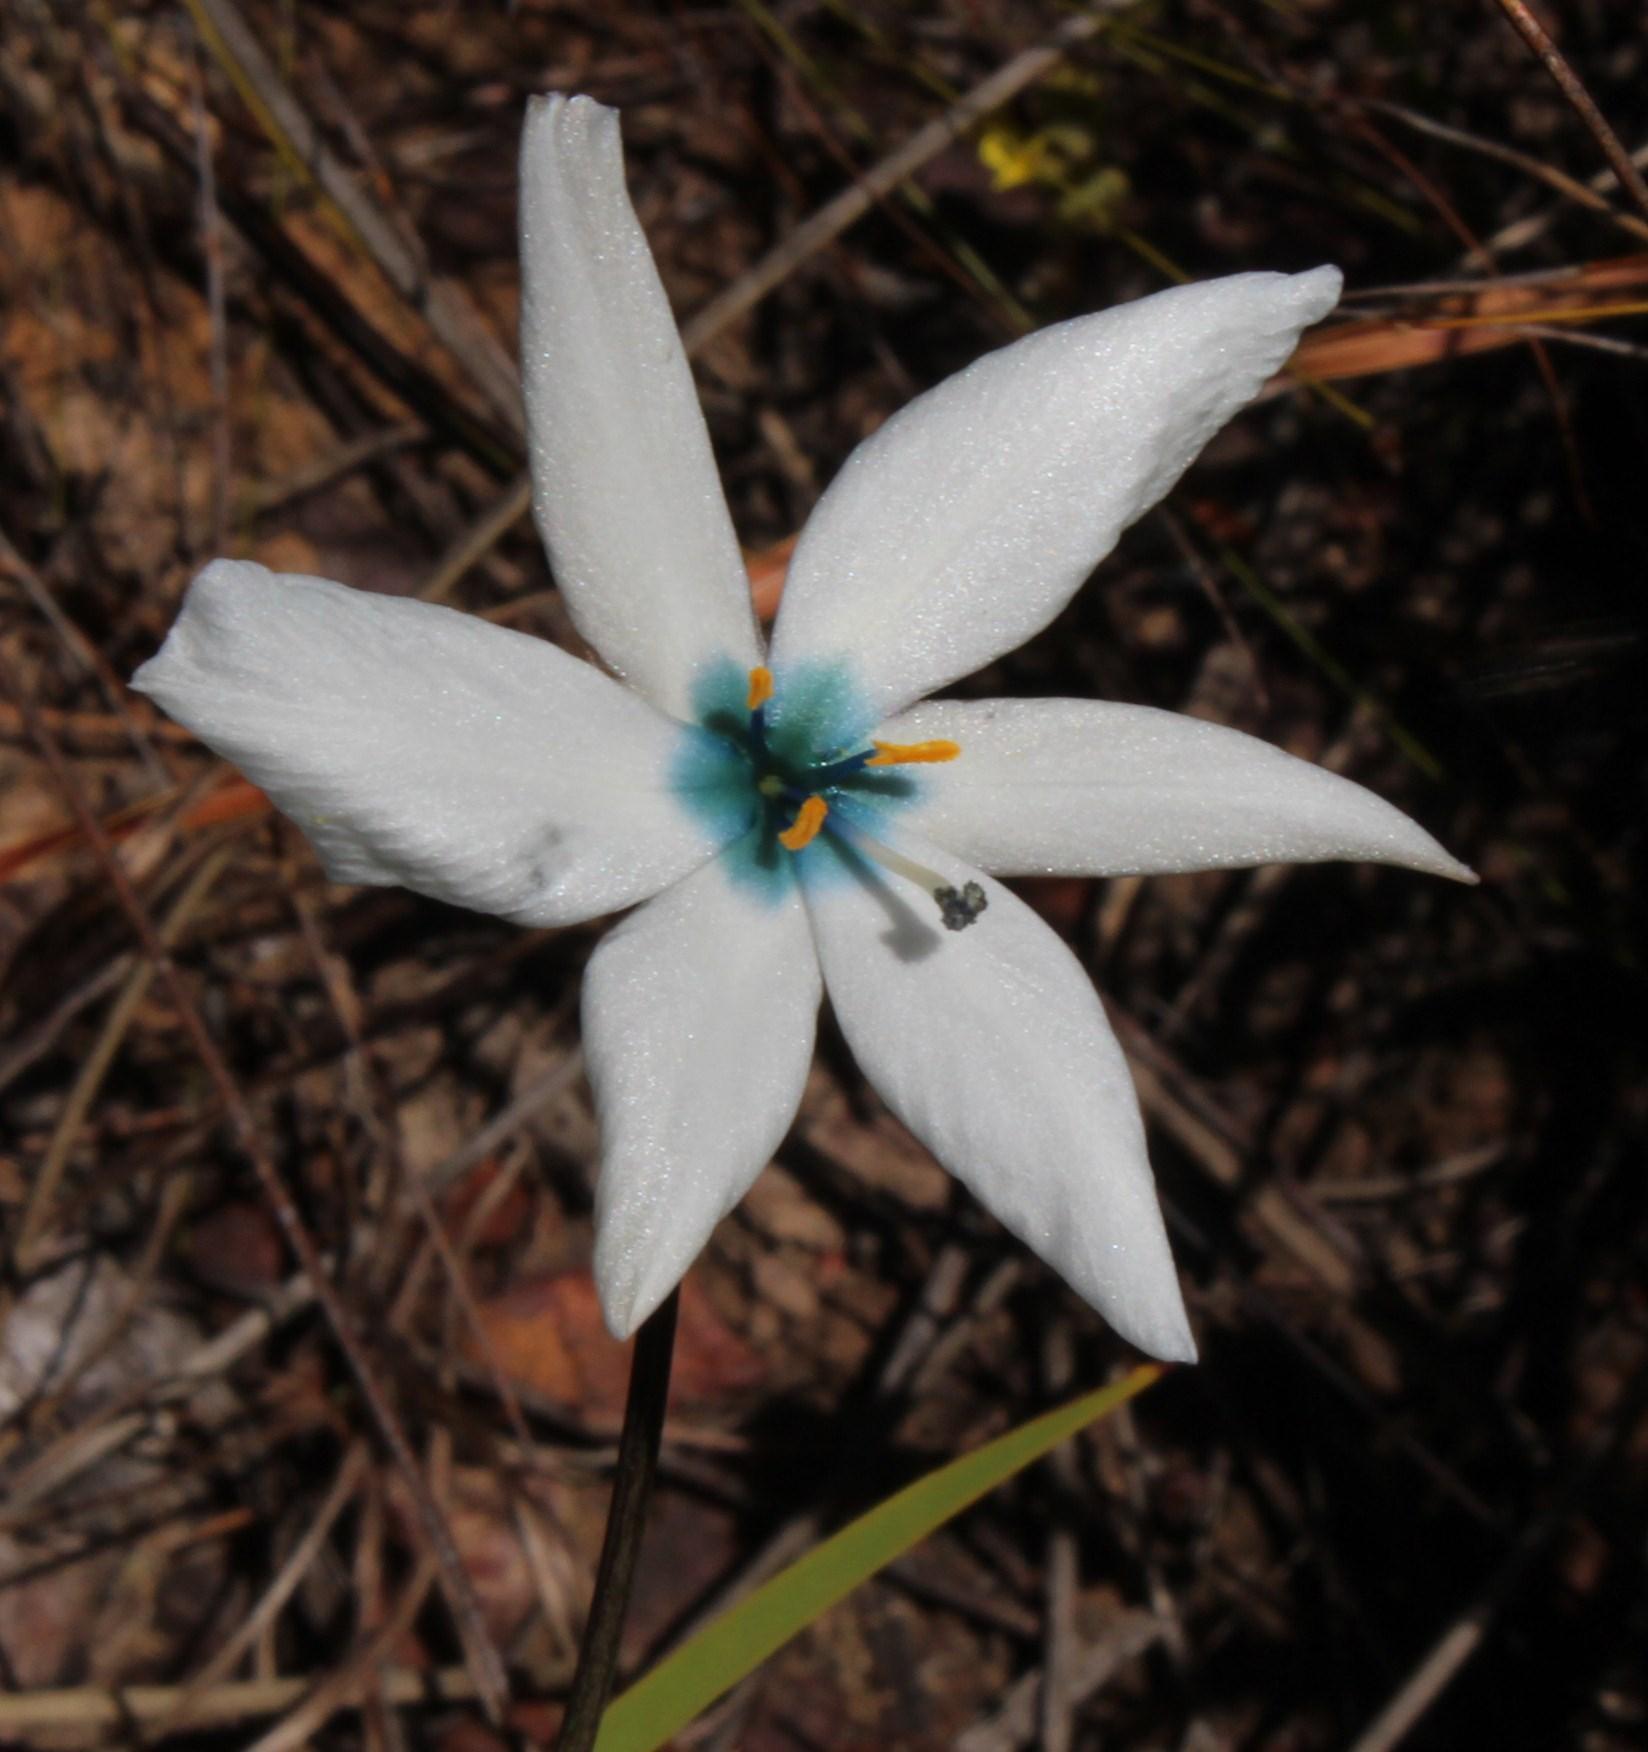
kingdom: Plantae
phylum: Tracheophyta
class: Liliopsida
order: Asparagales
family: Iridaceae
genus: Aristea
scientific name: Aristea cantharophila
